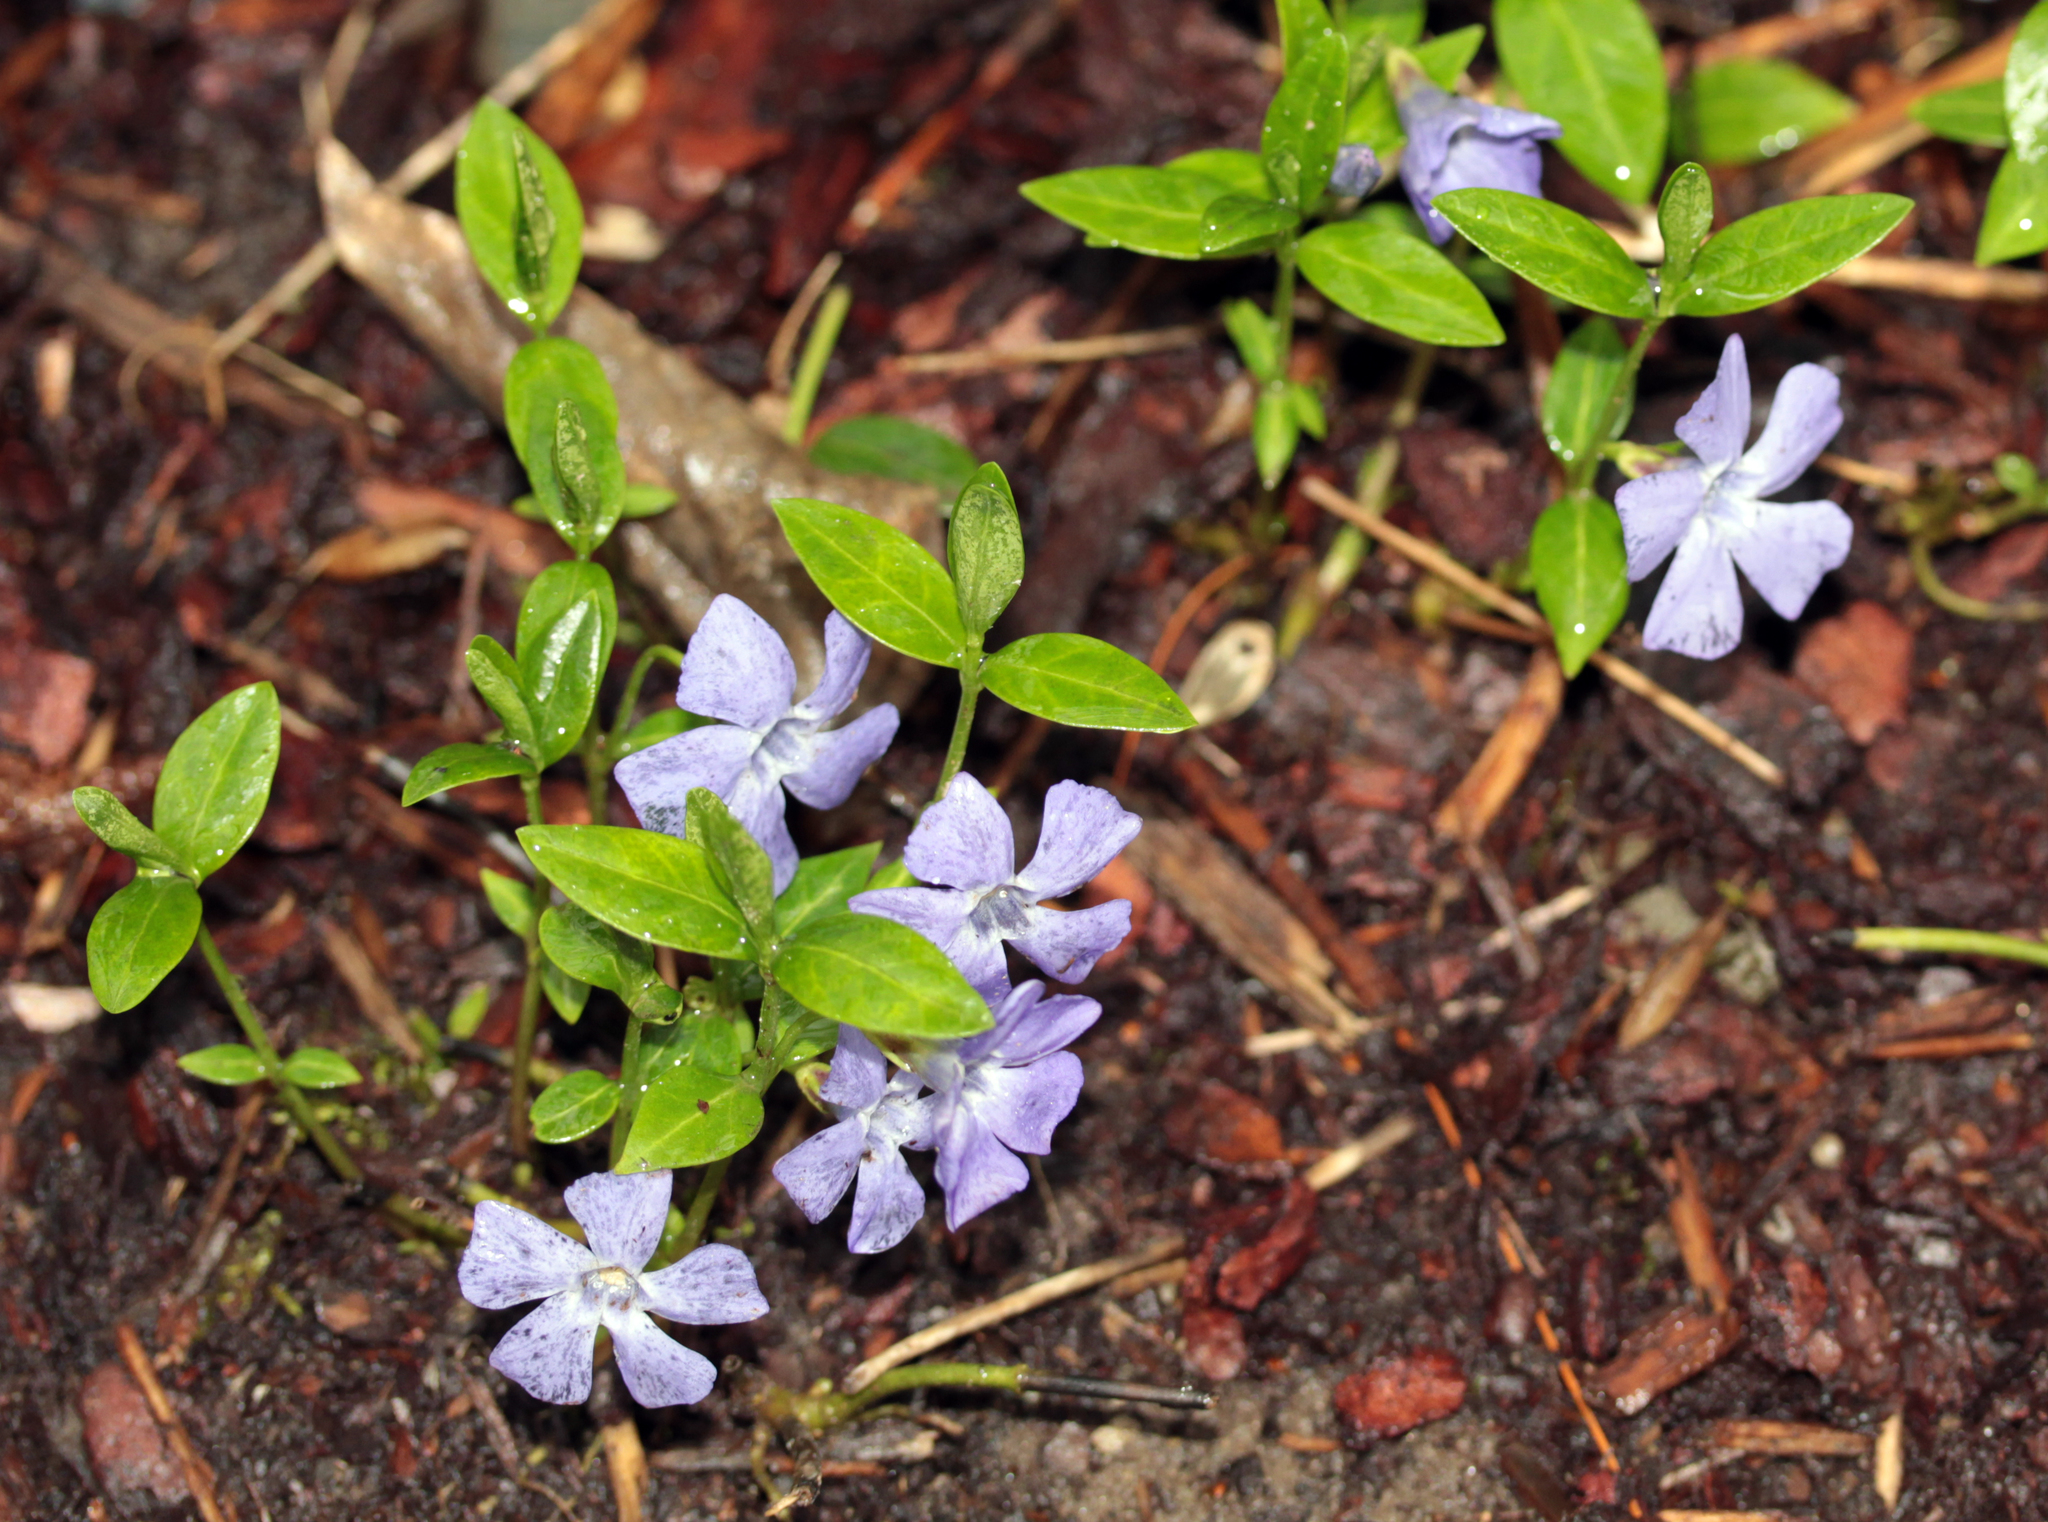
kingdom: Plantae
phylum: Tracheophyta
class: Magnoliopsida
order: Gentianales
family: Apocynaceae
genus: Vinca
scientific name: Vinca minor
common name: Lesser periwinkle
